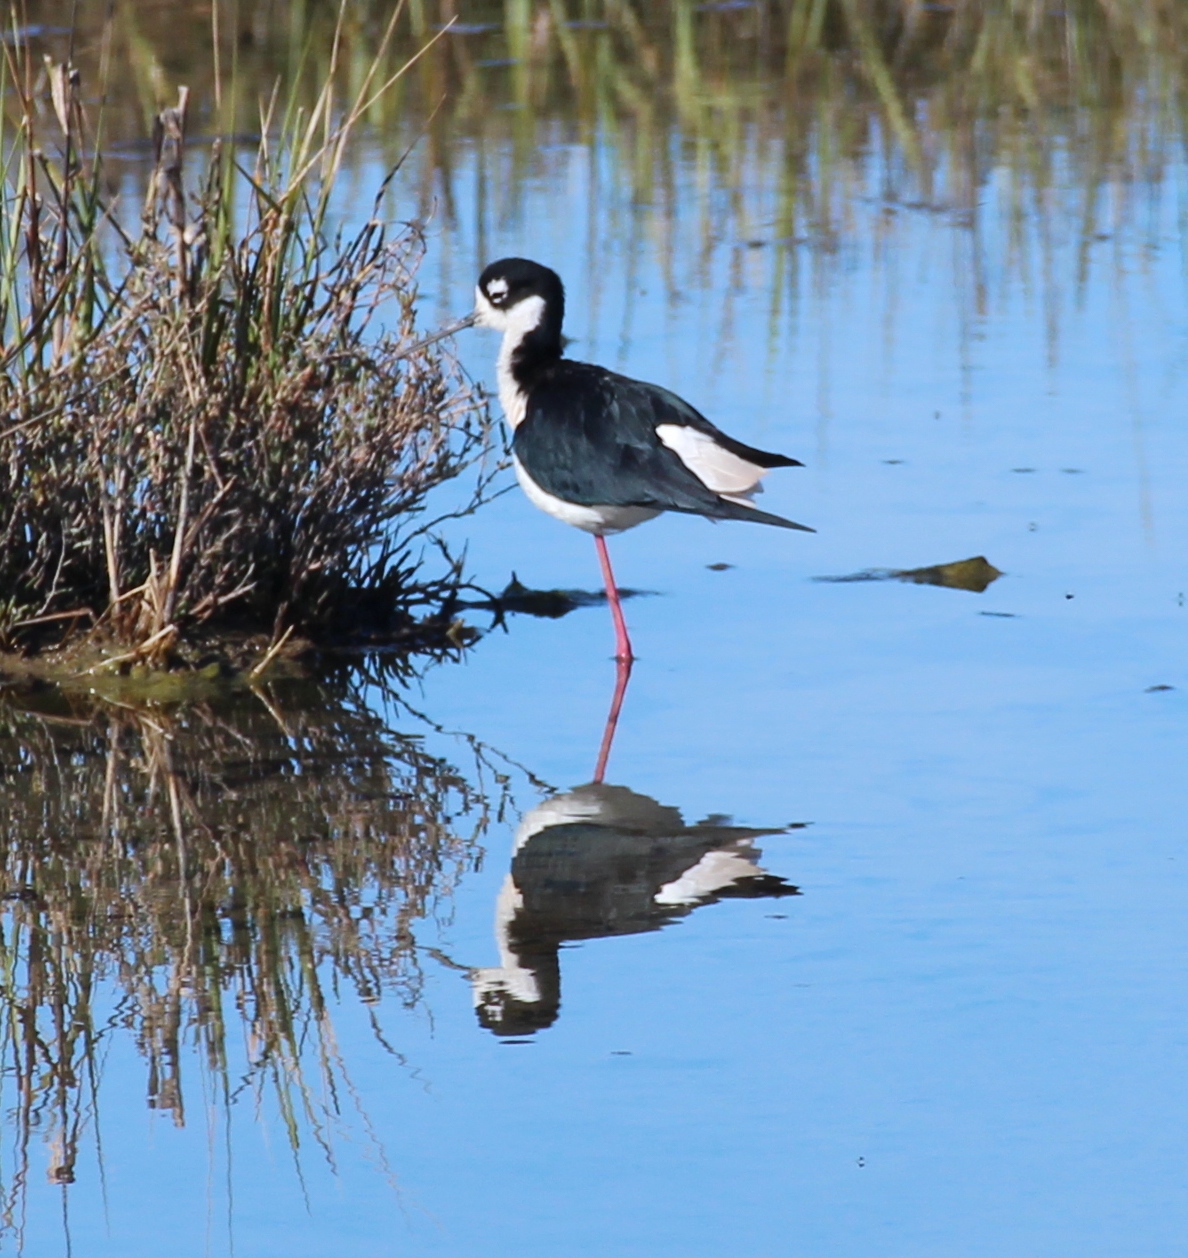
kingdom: Animalia
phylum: Chordata
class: Aves
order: Charadriiformes
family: Recurvirostridae
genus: Himantopus
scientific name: Himantopus mexicanus
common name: Black-necked stilt
